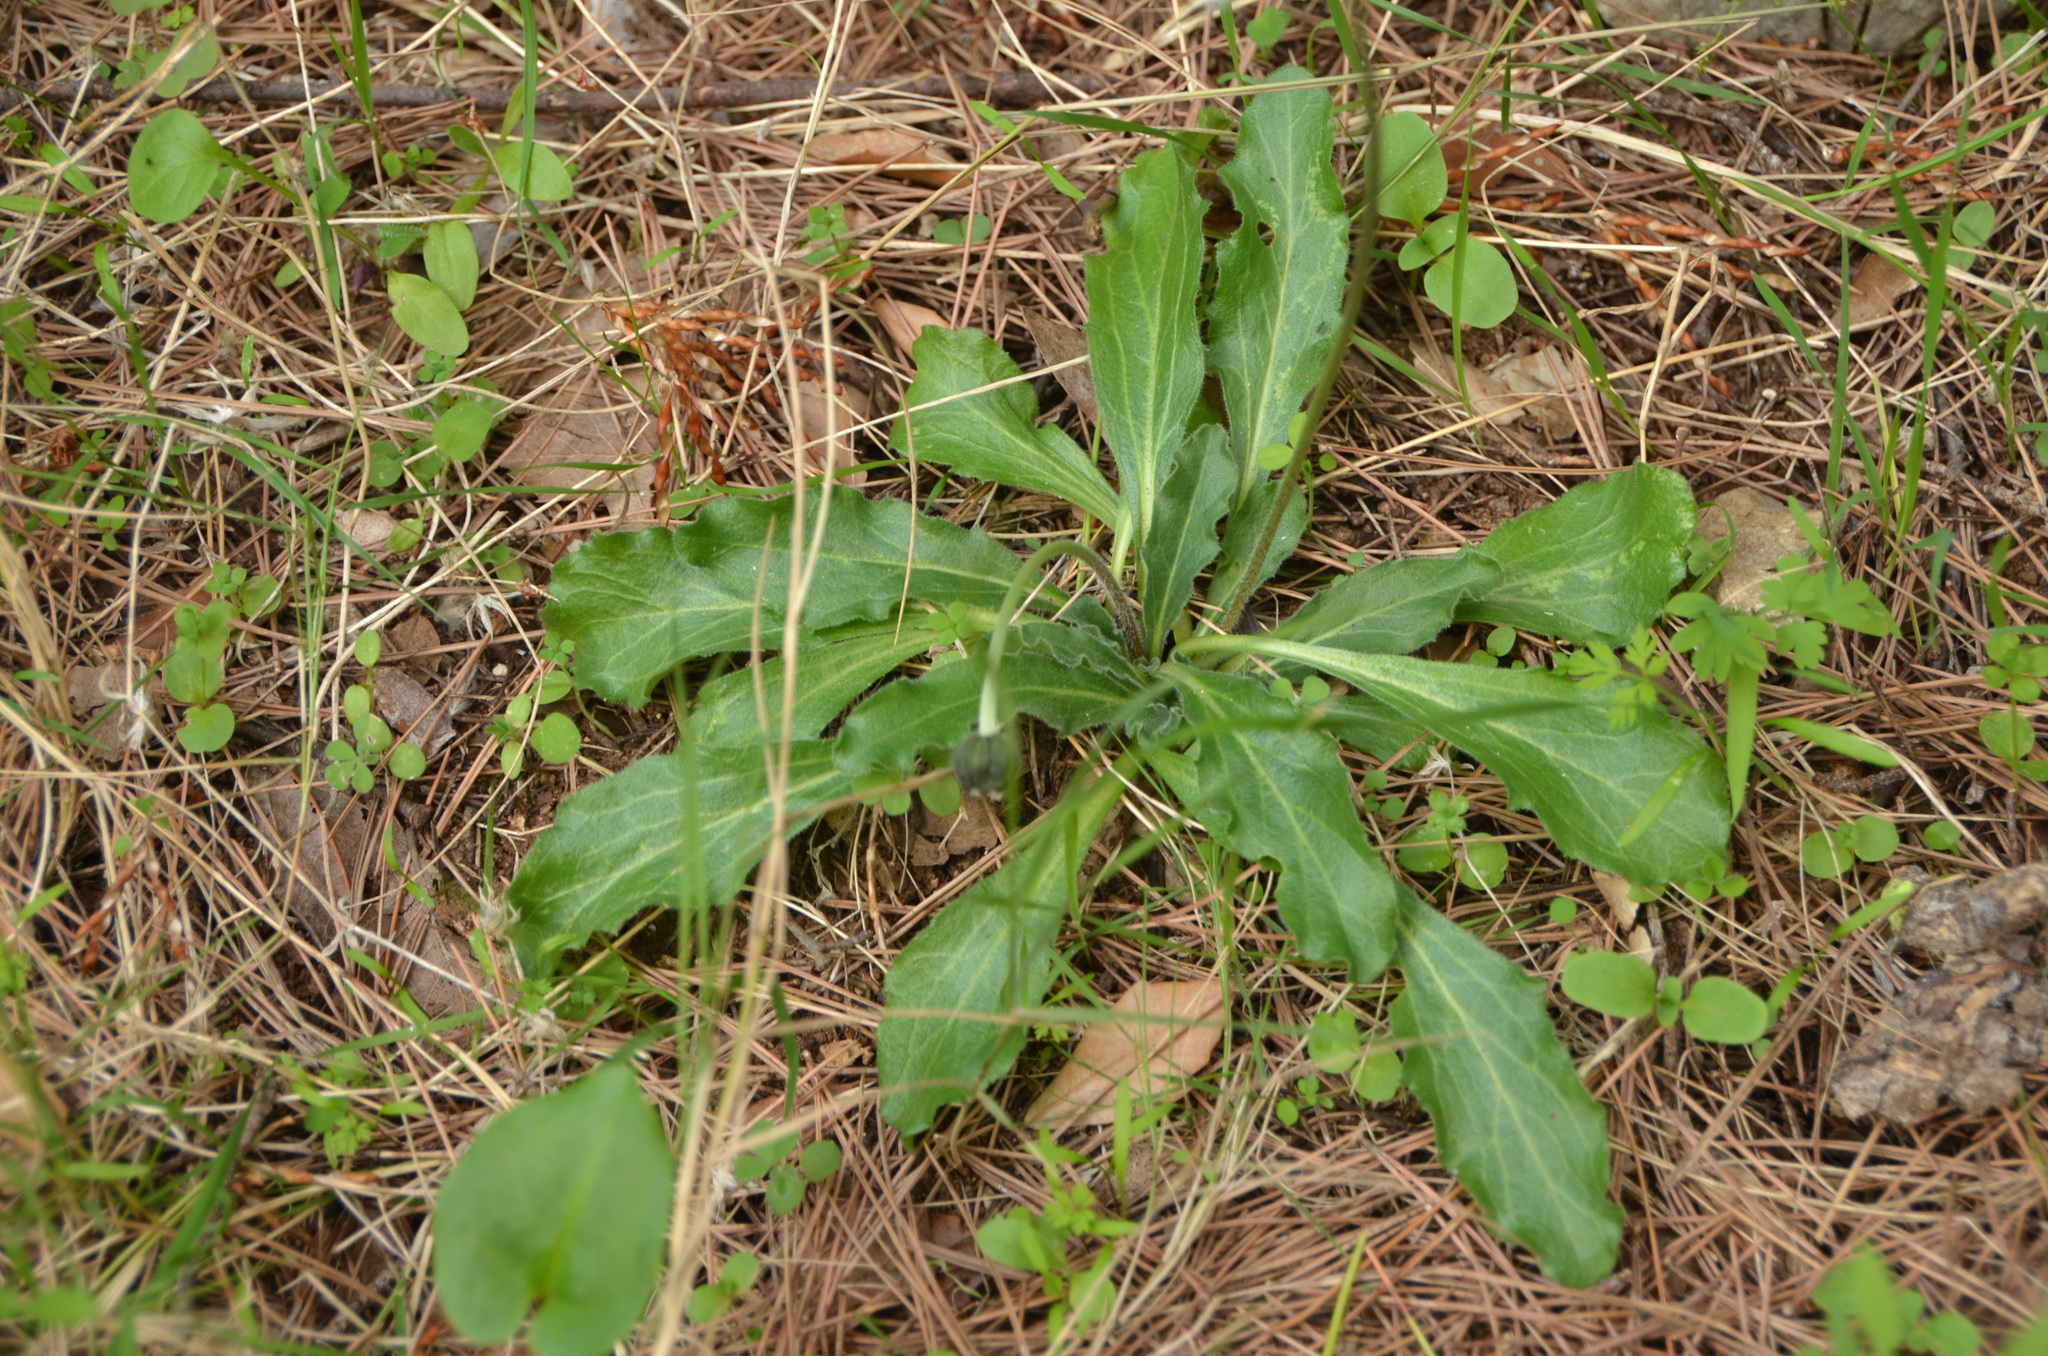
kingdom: Plantae
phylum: Tracheophyta
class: Magnoliopsida
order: Asterales
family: Asteraceae
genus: Bellis
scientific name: Bellis perennis
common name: Lawndaisy
